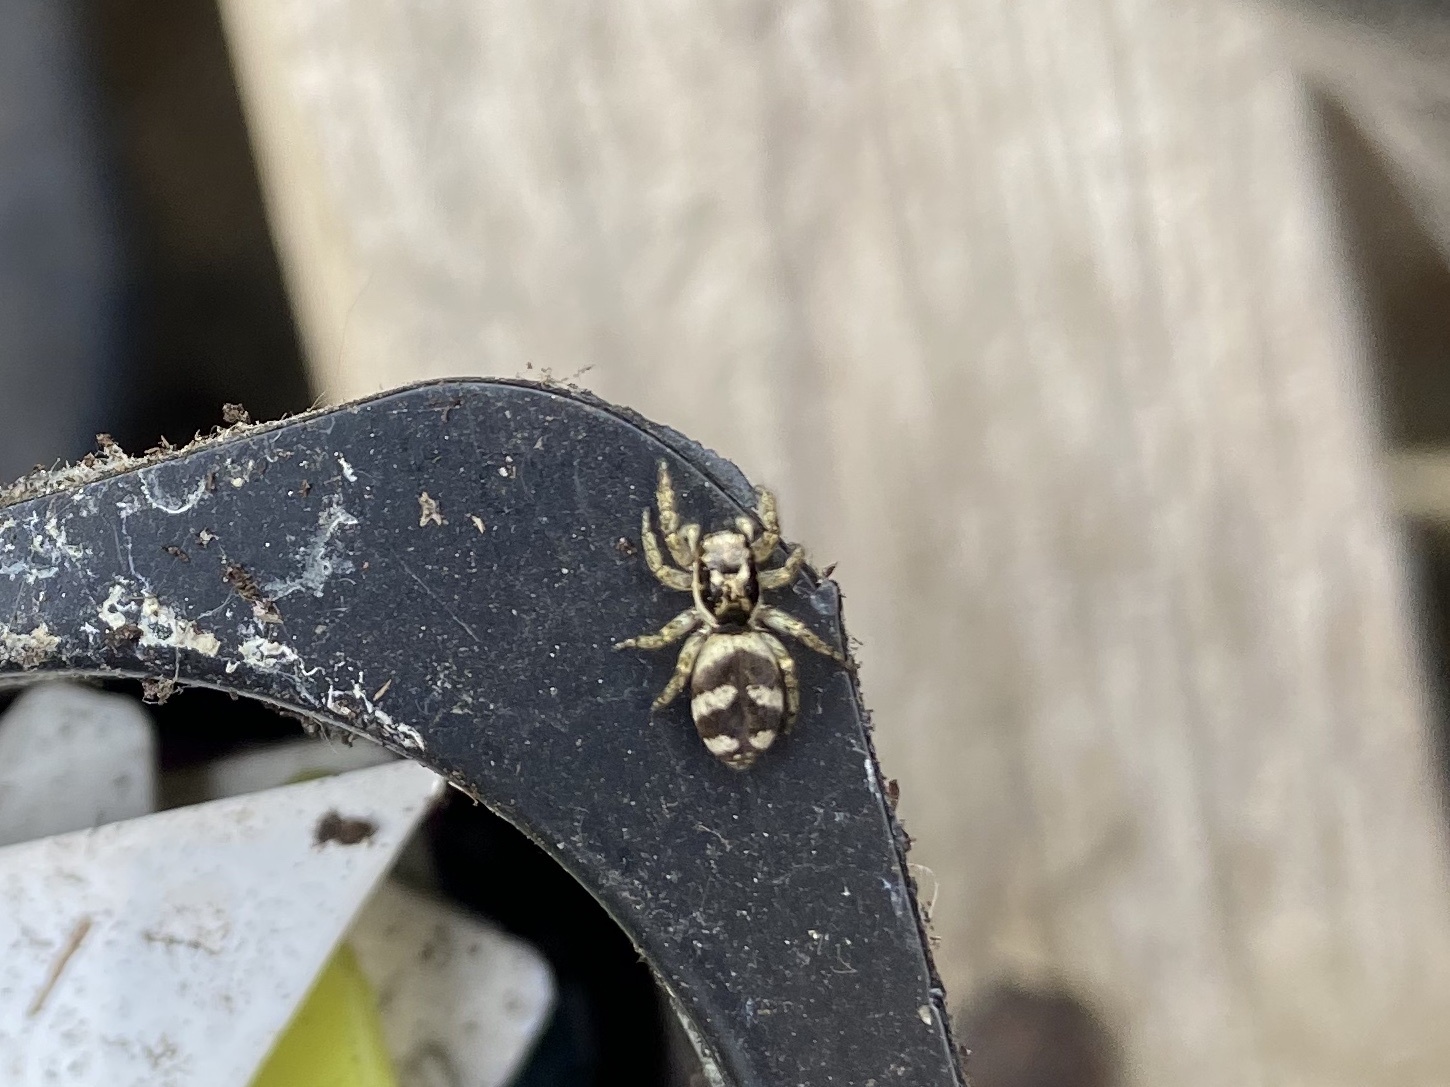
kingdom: Animalia
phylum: Arthropoda
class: Arachnida
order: Araneae
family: Salticidae
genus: Salticus
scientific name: Salticus scenicus
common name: Zebra jumper
